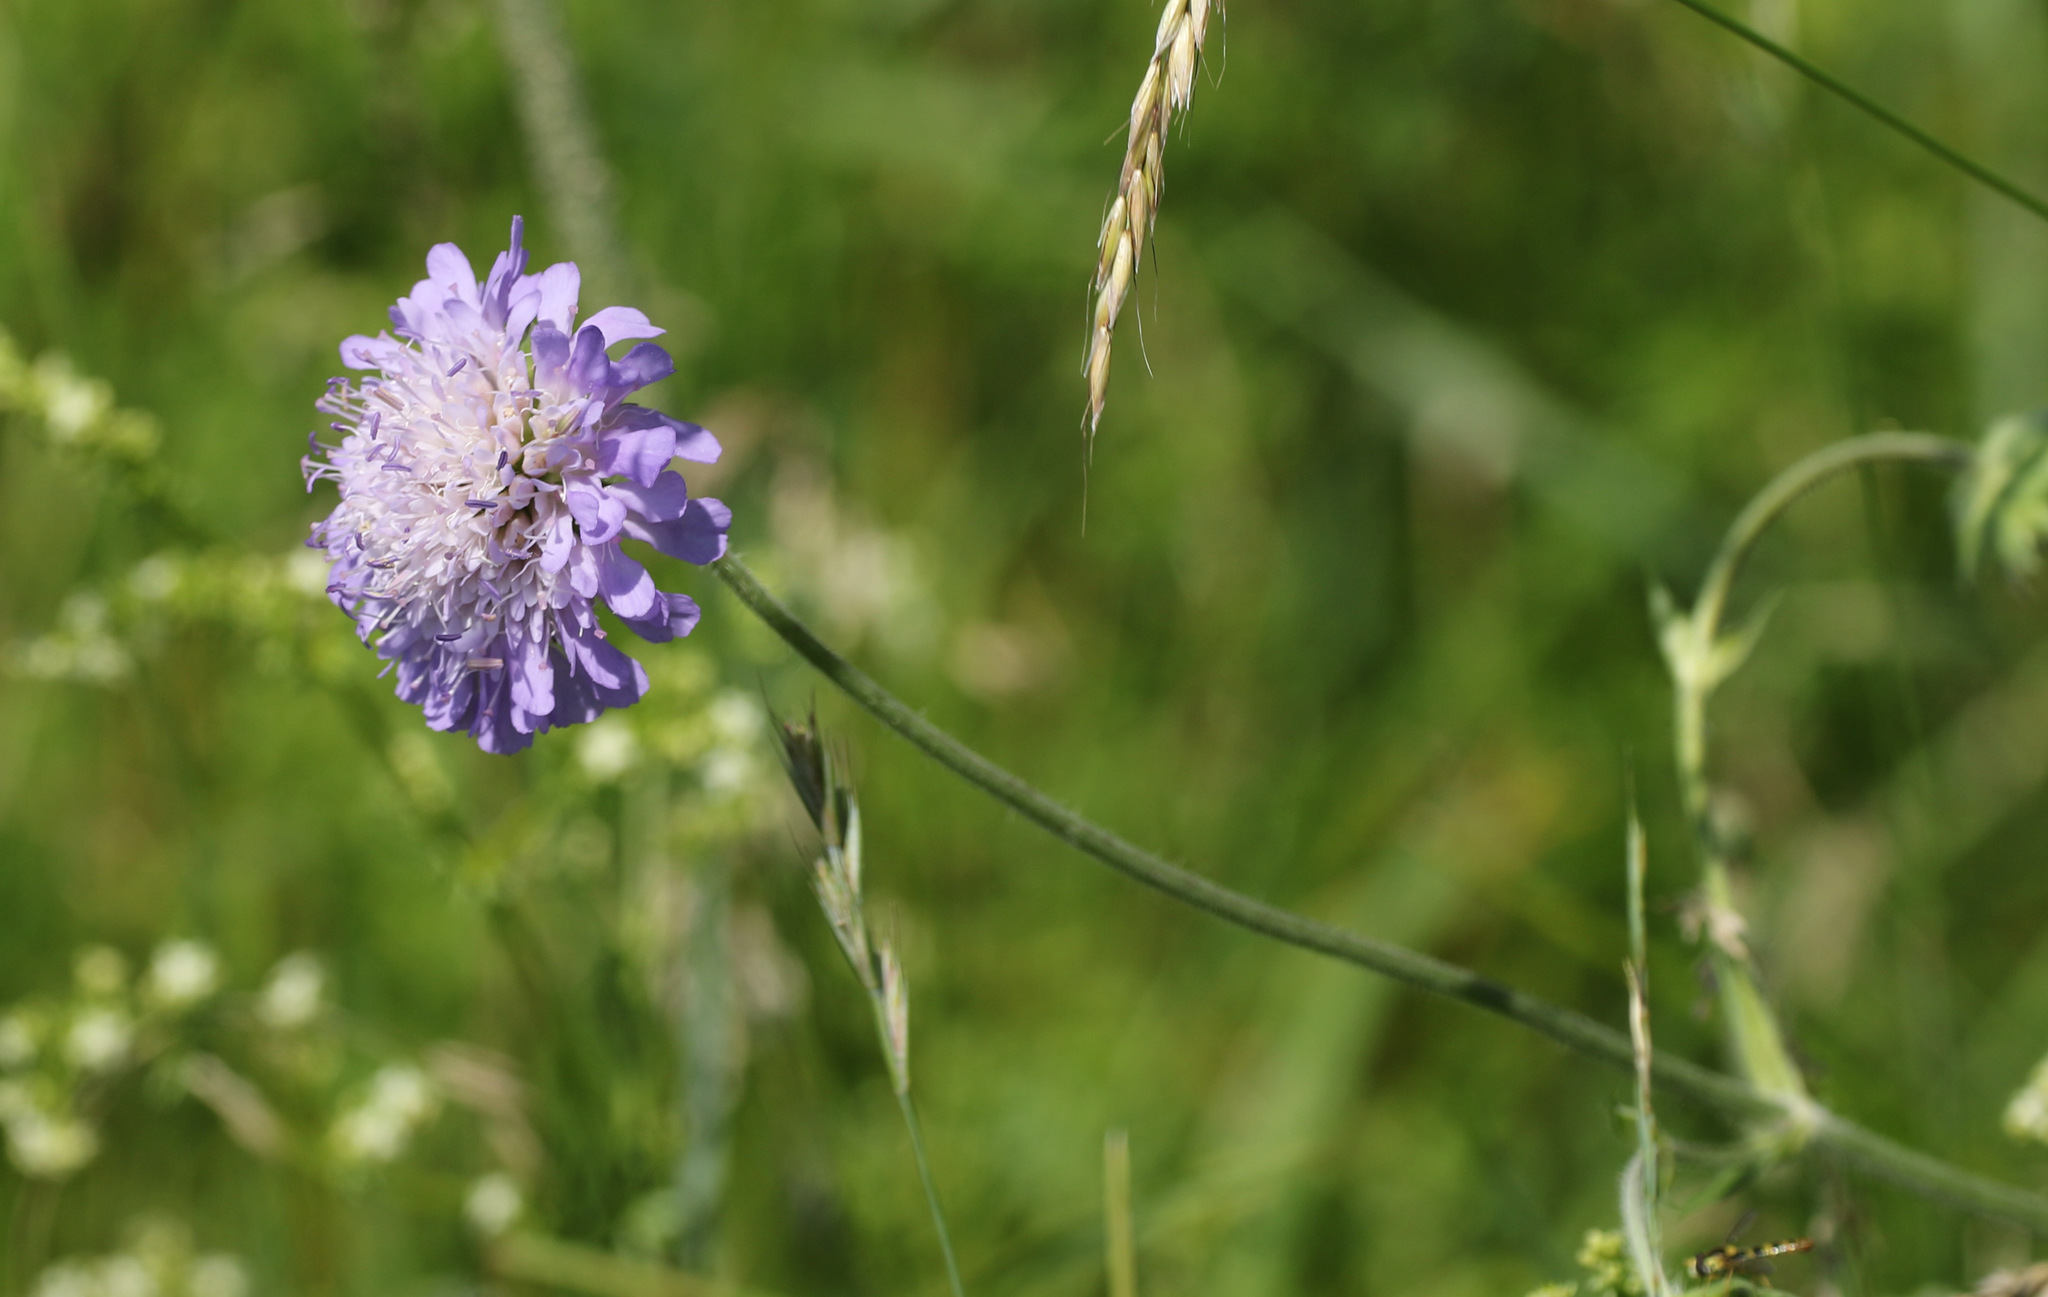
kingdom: Plantae
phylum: Tracheophyta
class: Magnoliopsida
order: Dipsacales
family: Caprifoliaceae
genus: Knautia
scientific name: Knautia arvensis
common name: Field scabiosa
